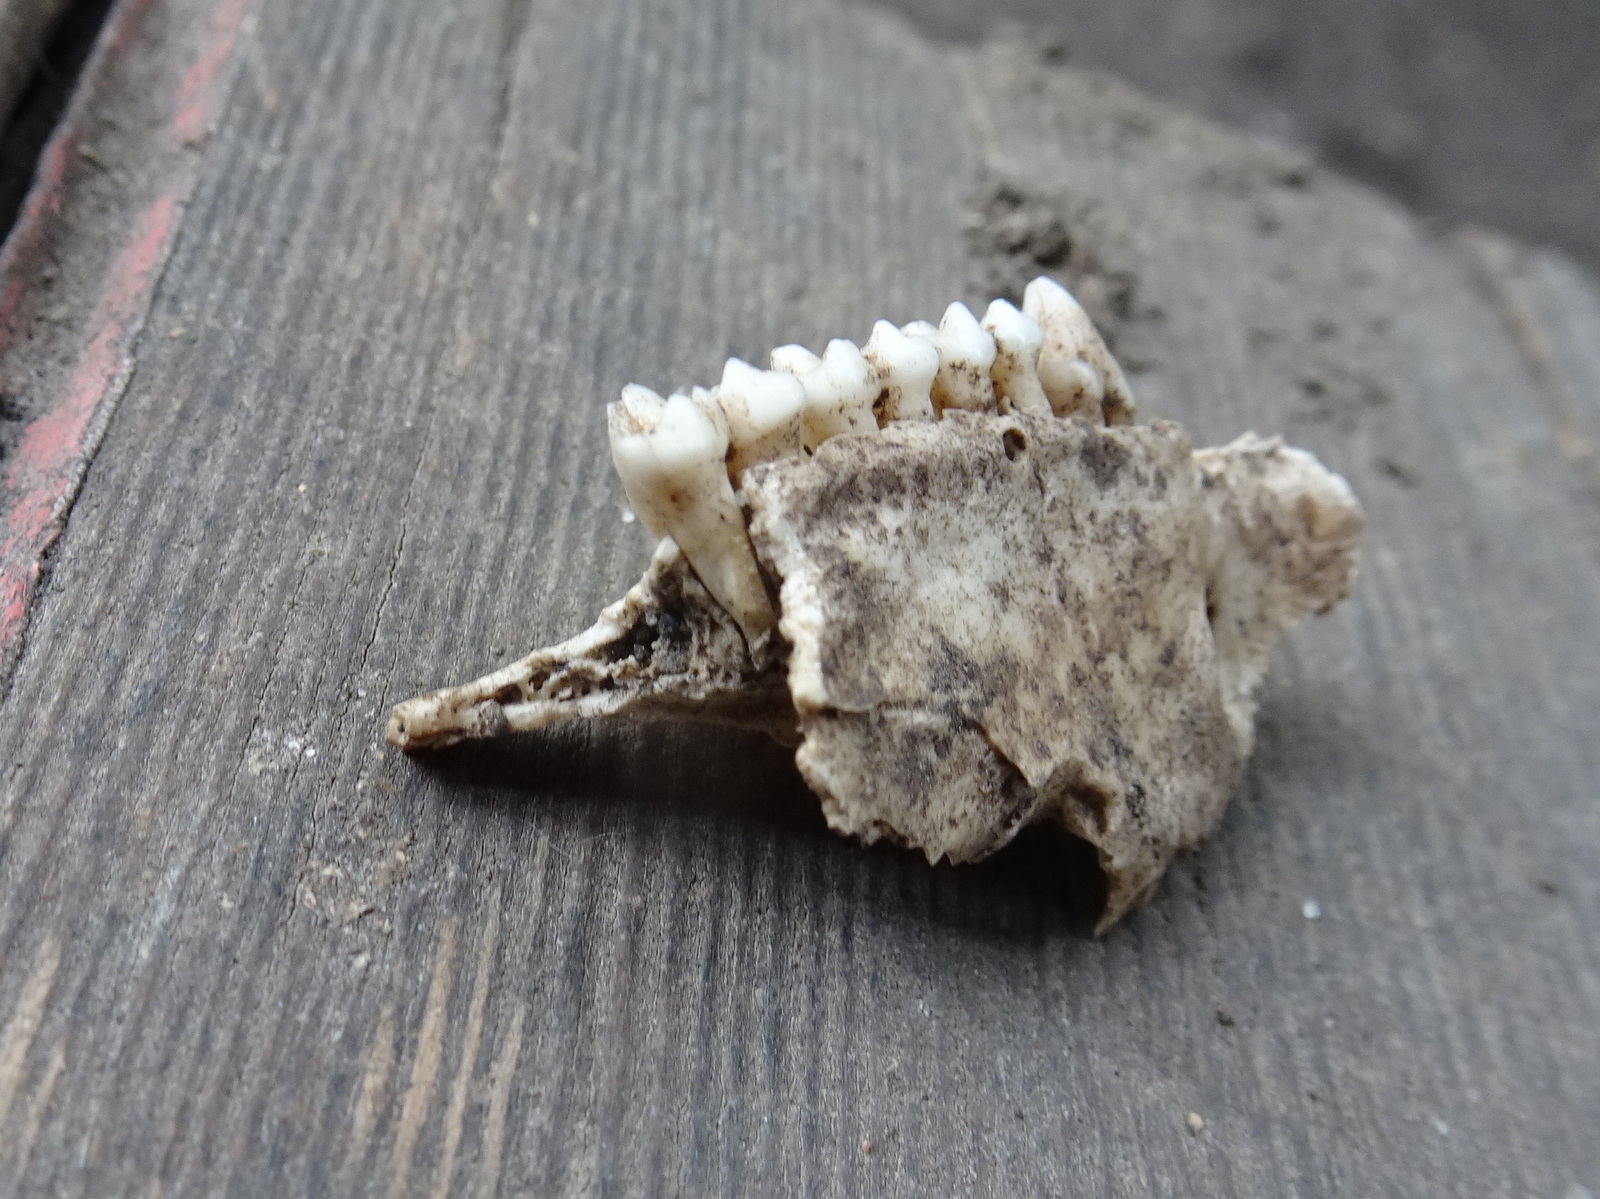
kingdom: Animalia
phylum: Chordata
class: Mammalia
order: Didelphimorphia
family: Didelphidae
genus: Didelphis
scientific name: Didelphis virginiana
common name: Virginia opossum
